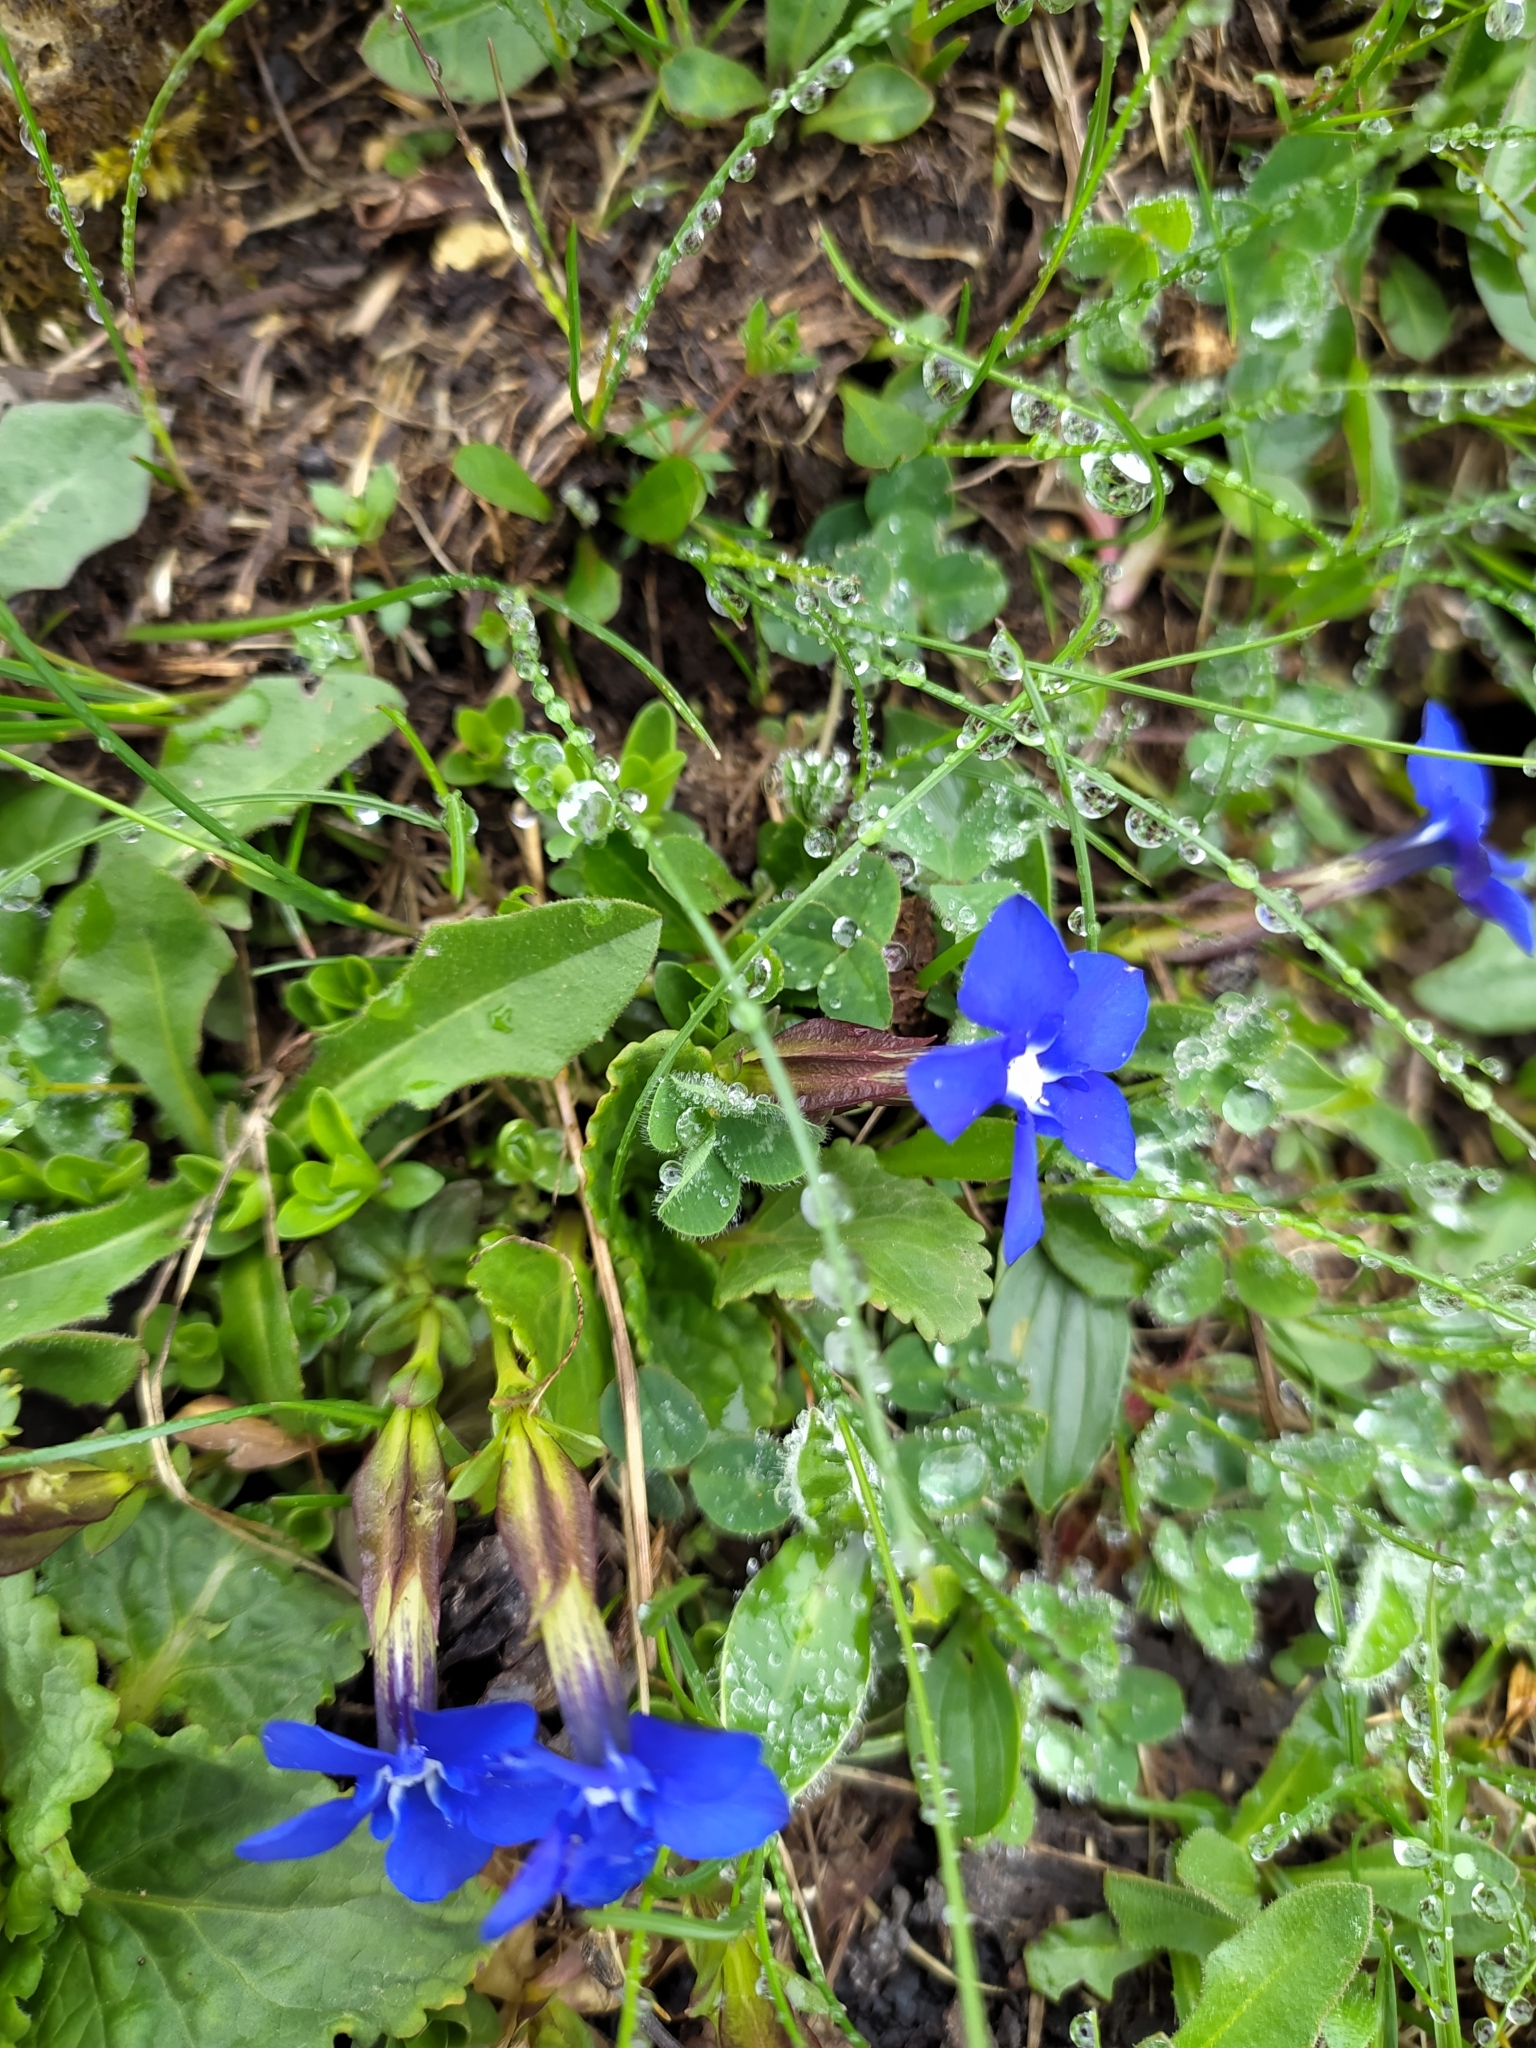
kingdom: Plantae
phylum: Tracheophyta
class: Magnoliopsida
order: Gentianales
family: Gentianaceae
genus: Gentiana
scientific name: Gentiana verna
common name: Spring gentian
